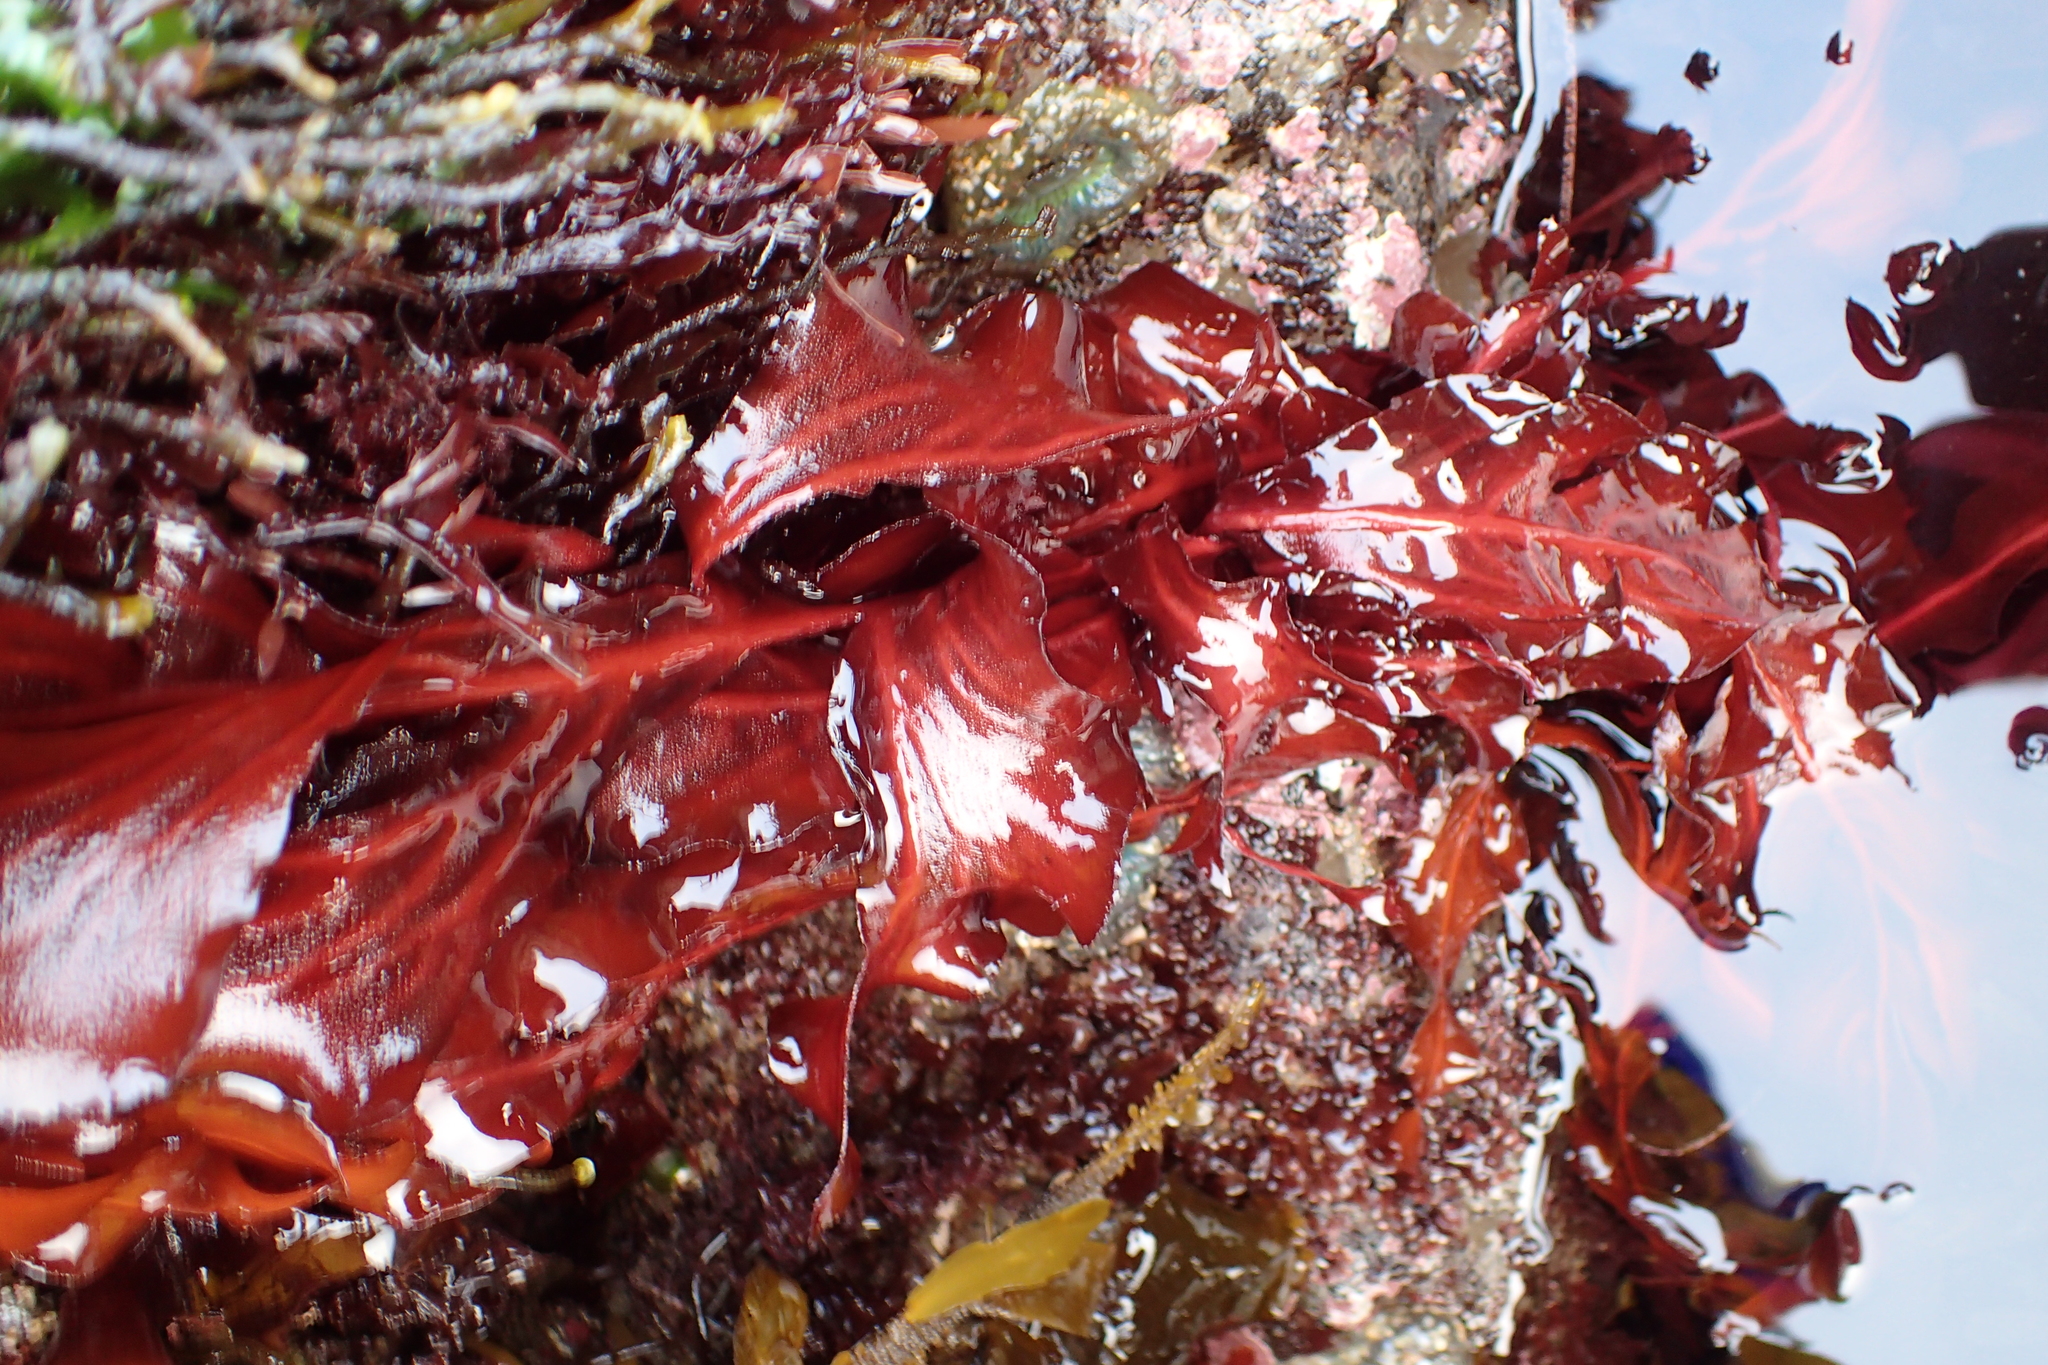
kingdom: Plantae
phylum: Rhodophyta
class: Florideophyceae
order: Gigartinales
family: Kallymeniaceae
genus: Erythrophyllum
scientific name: Erythrophyllum delesserioides
